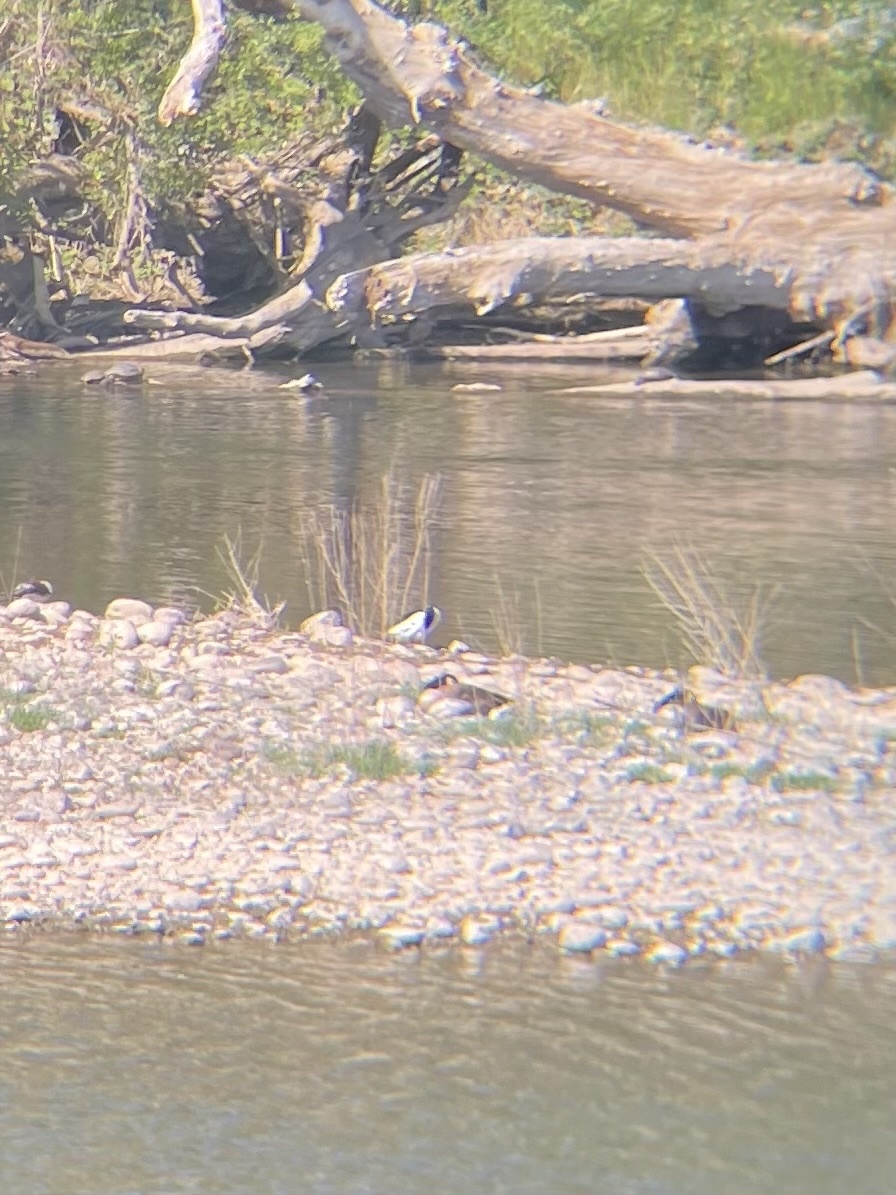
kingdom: Animalia
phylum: Chordata
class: Aves
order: Anseriformes
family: Anatidae
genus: Branta
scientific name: Branta canadensis
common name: Canada goose
